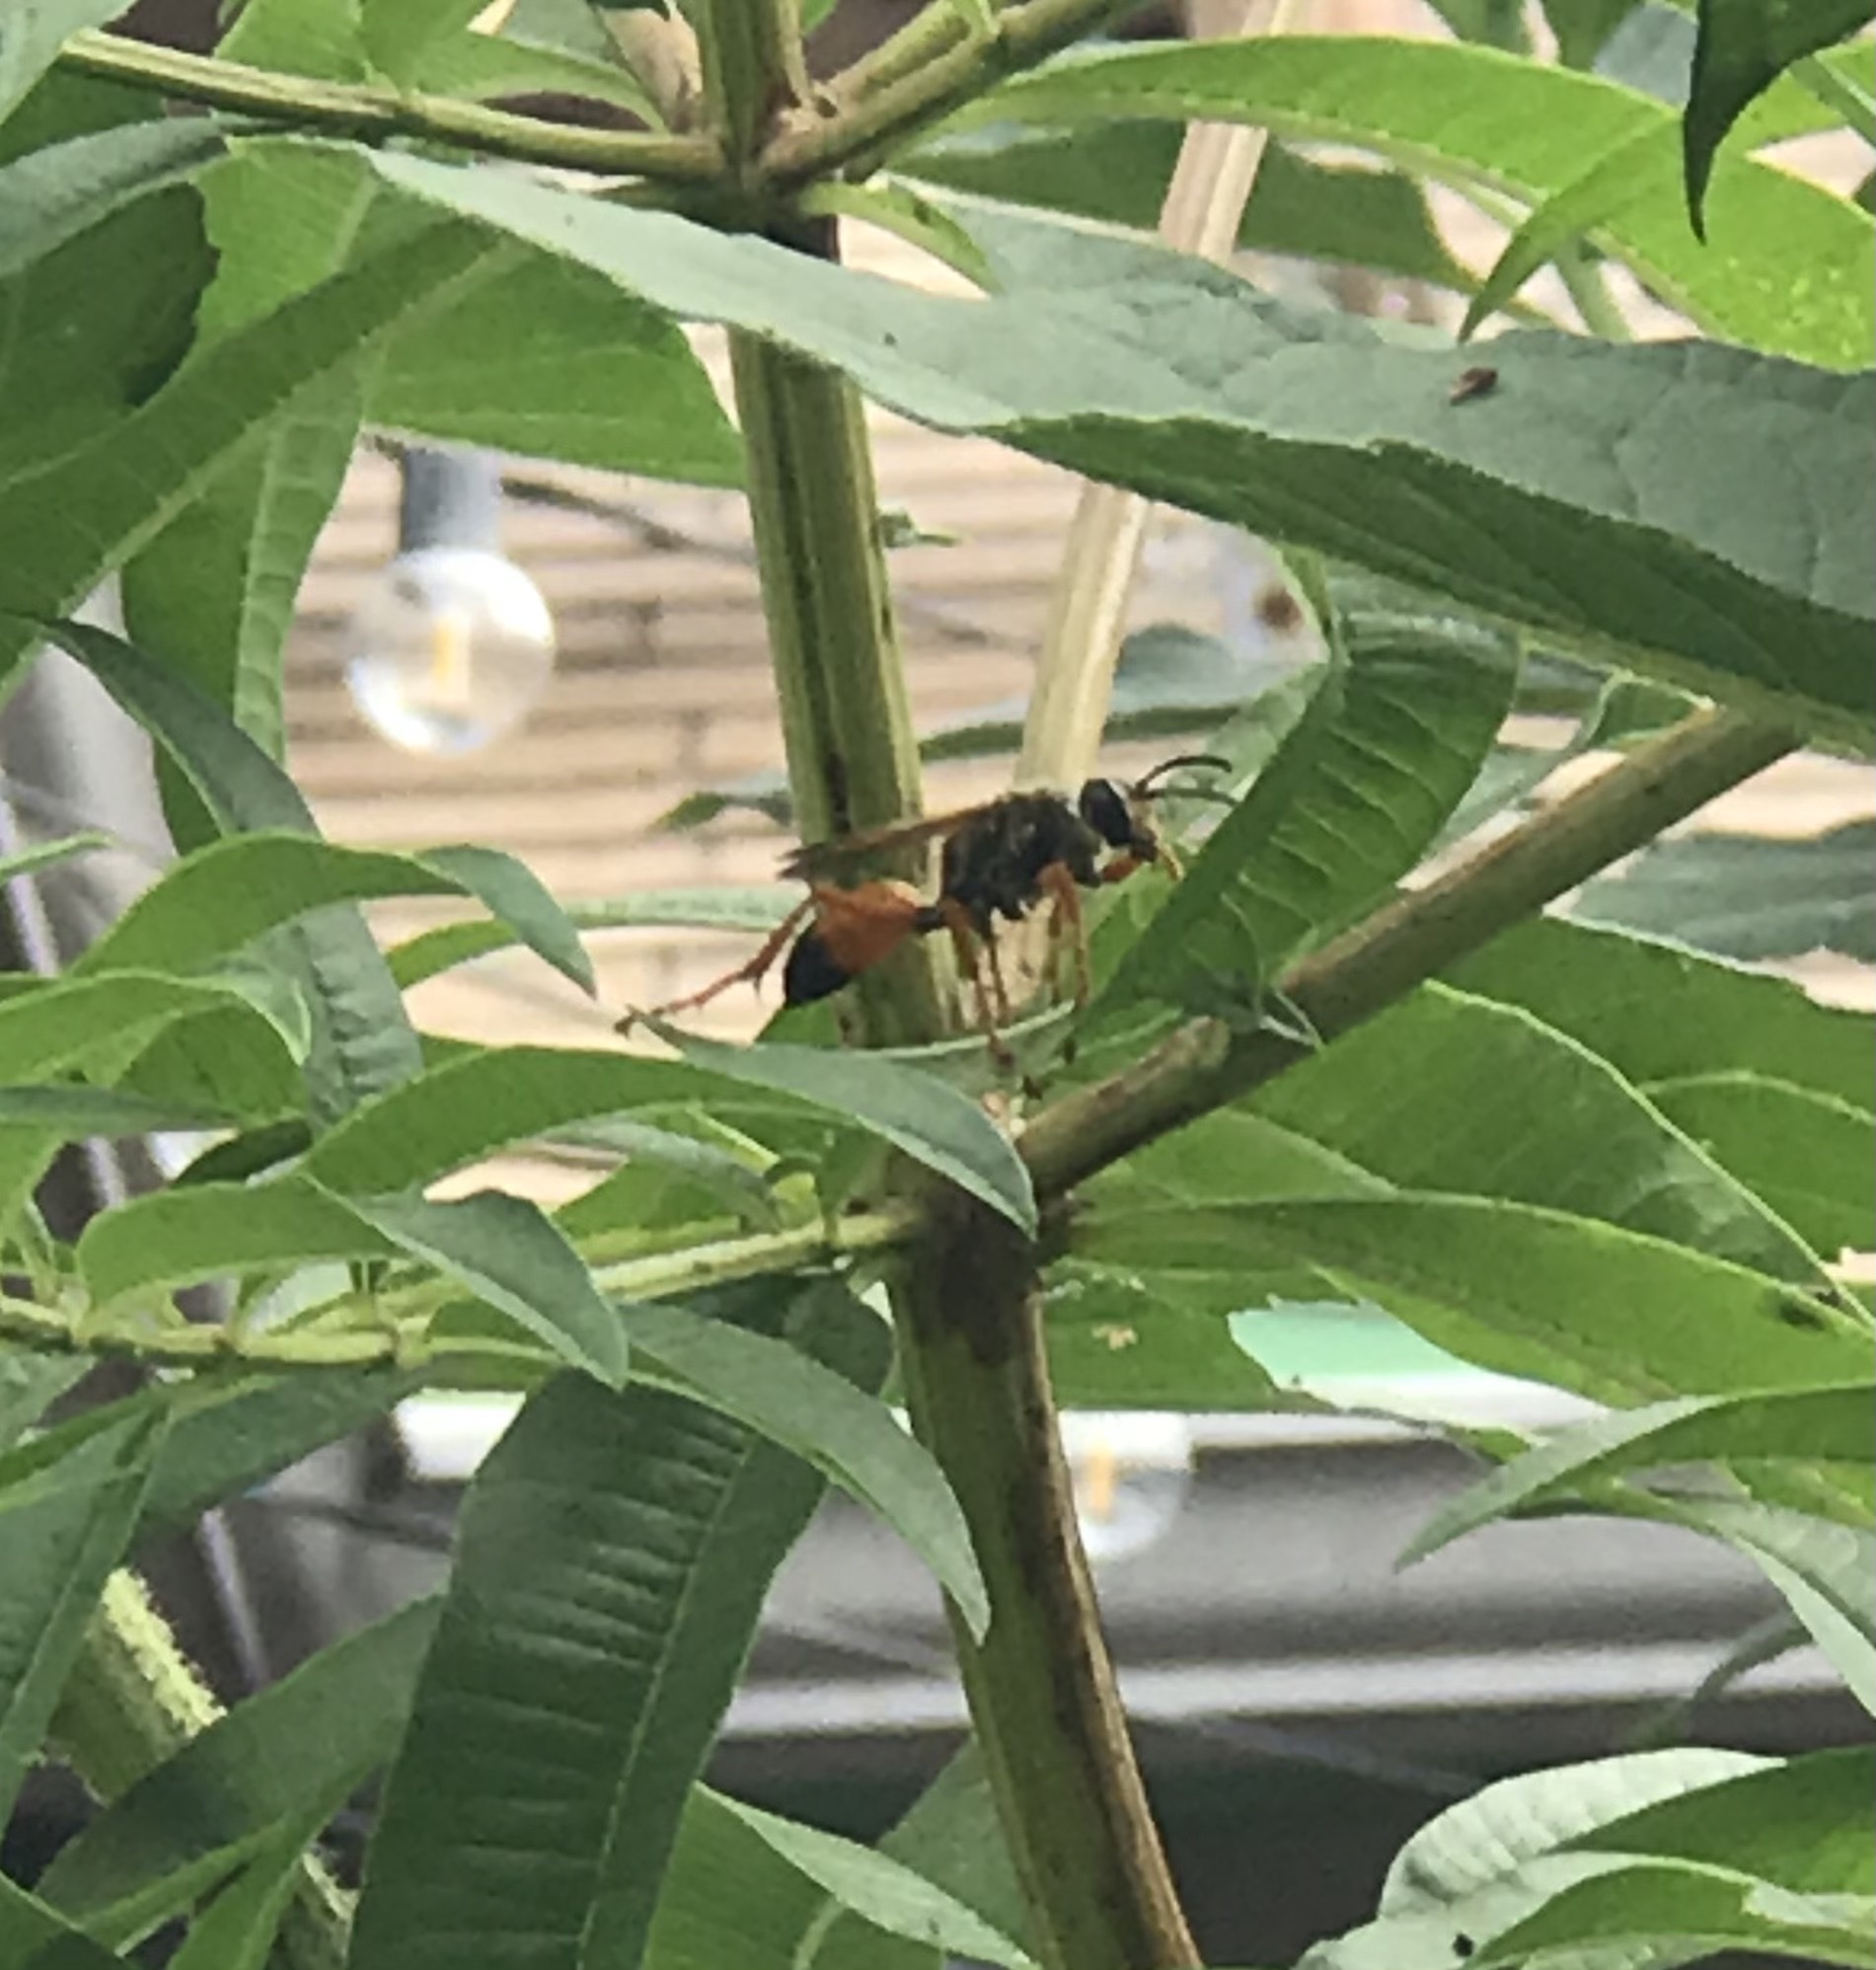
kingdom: Animalia
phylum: Arthropoda
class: Insecta
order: Hymenoptera
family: Sphecidae
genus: Sphex
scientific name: Sphex ichneumoneus
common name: Great golden digger wasp
